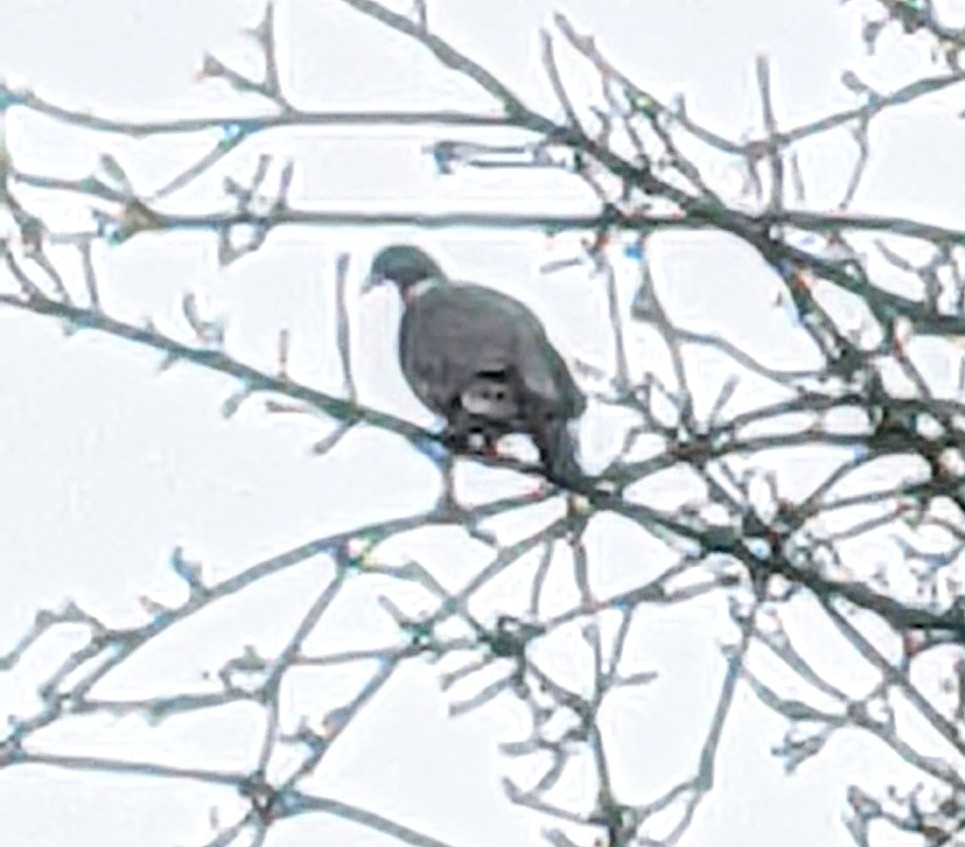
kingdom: Animalia
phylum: Chordata
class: Aves
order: Columbiformes
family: Columbidae
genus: Columba
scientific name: Columba palumbus
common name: Common wood pigeon
